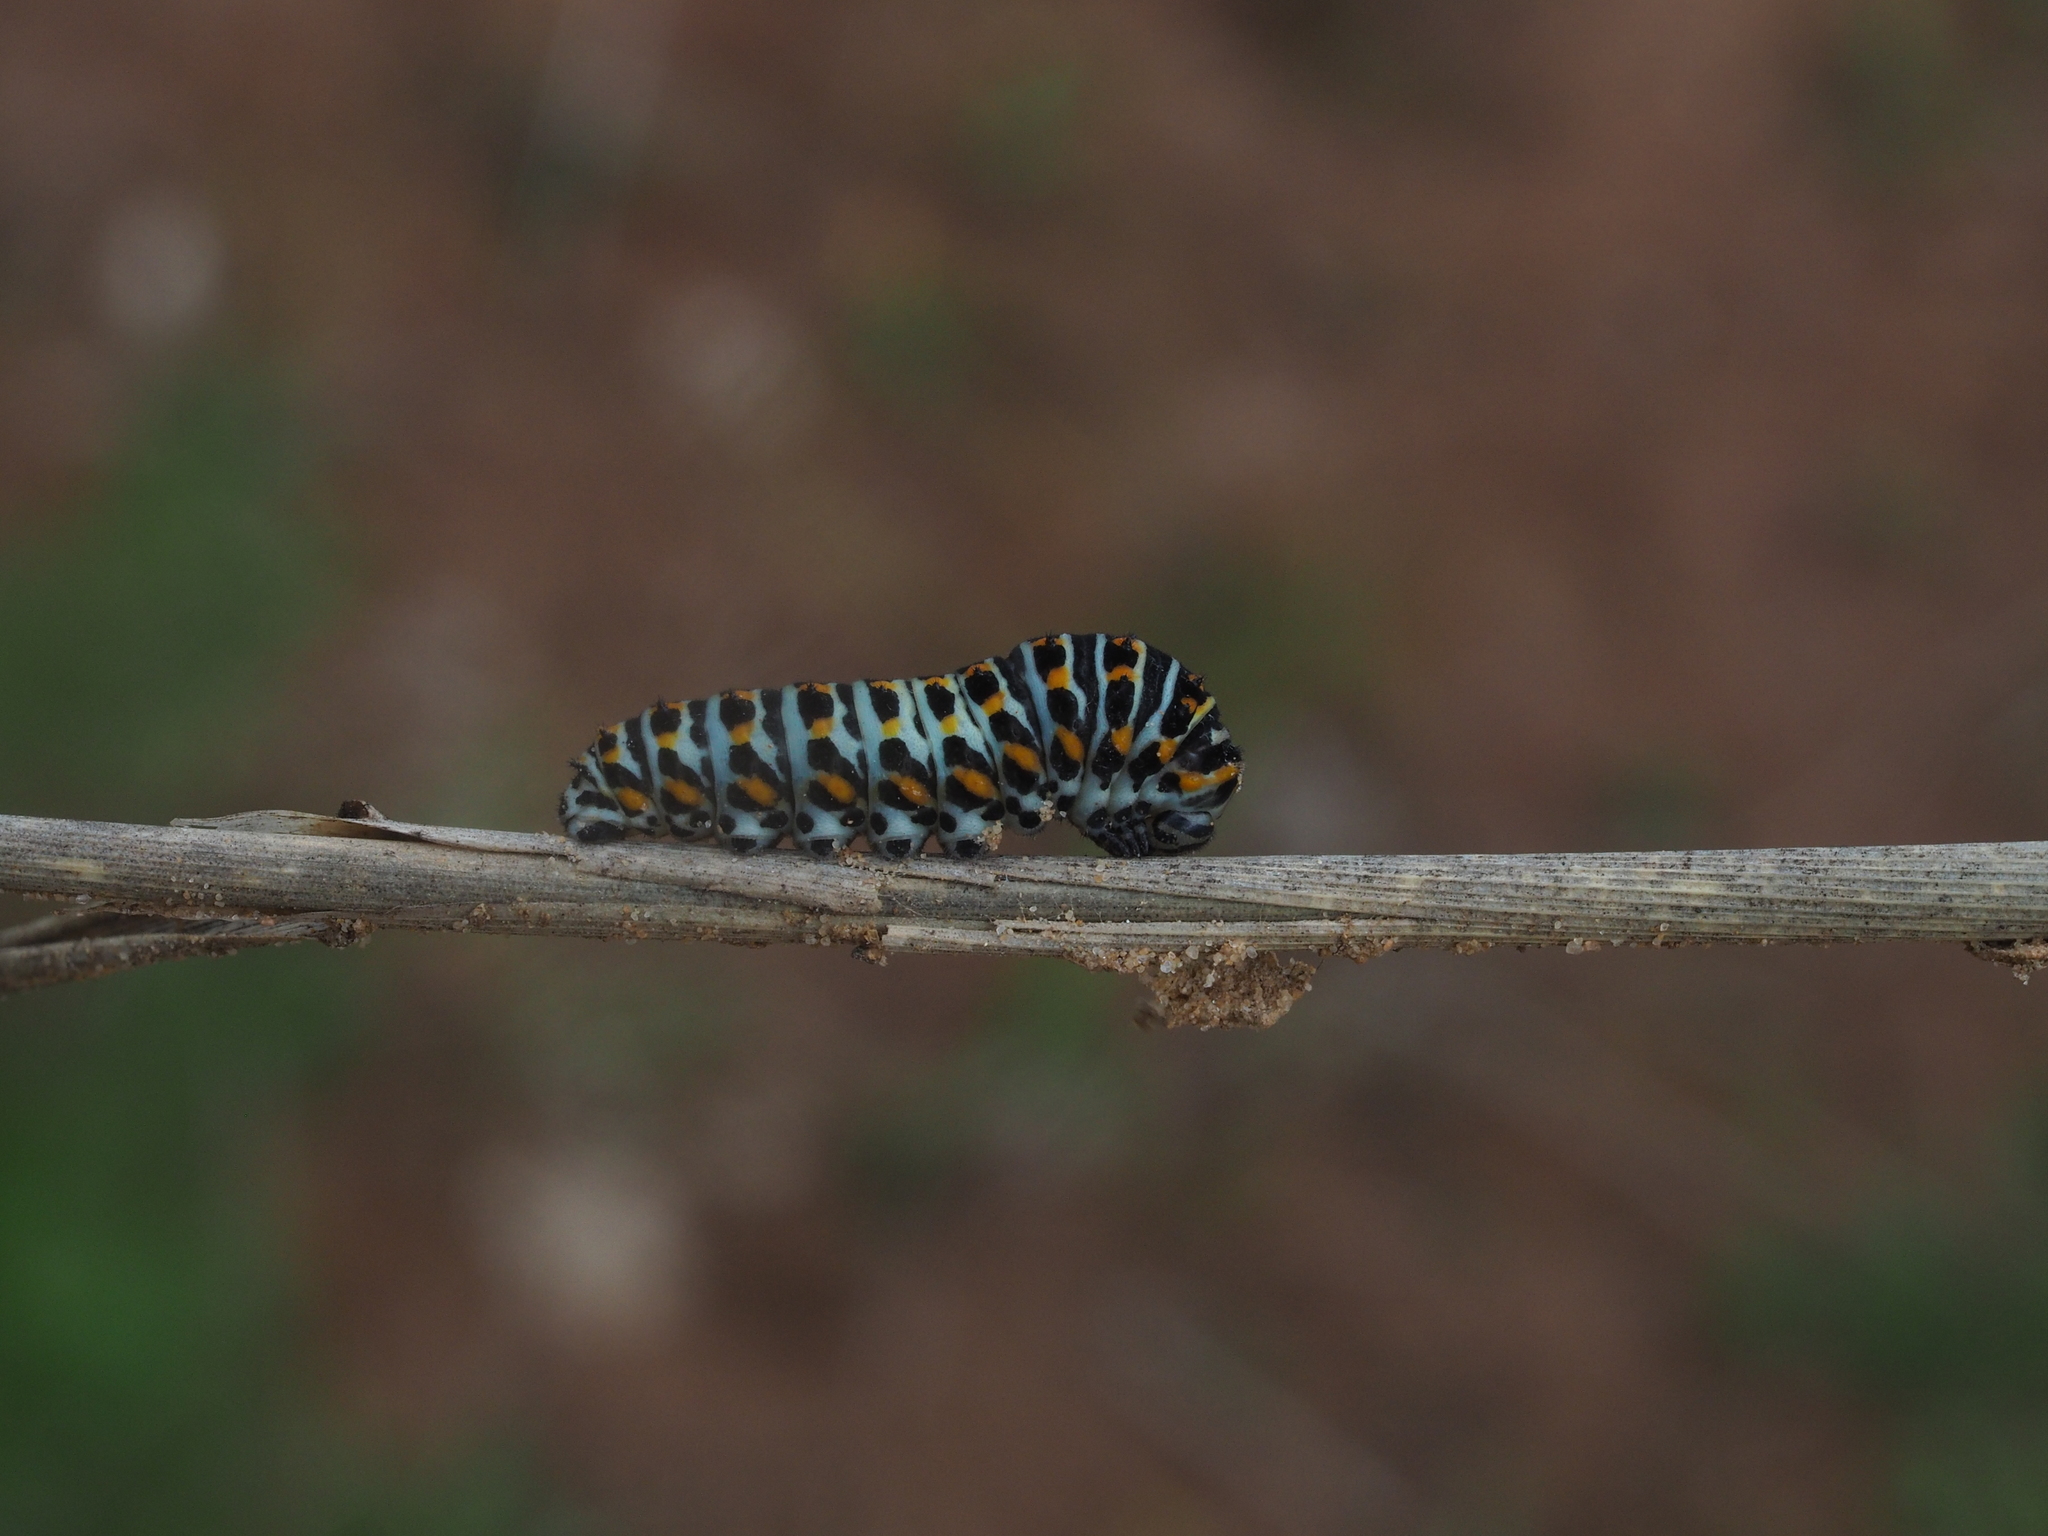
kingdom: Animalia
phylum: Arthropoda
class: Insecta
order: Lepidoptera
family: Papilionidae
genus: Papilio
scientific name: Papilio machaon
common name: Swallowtail
